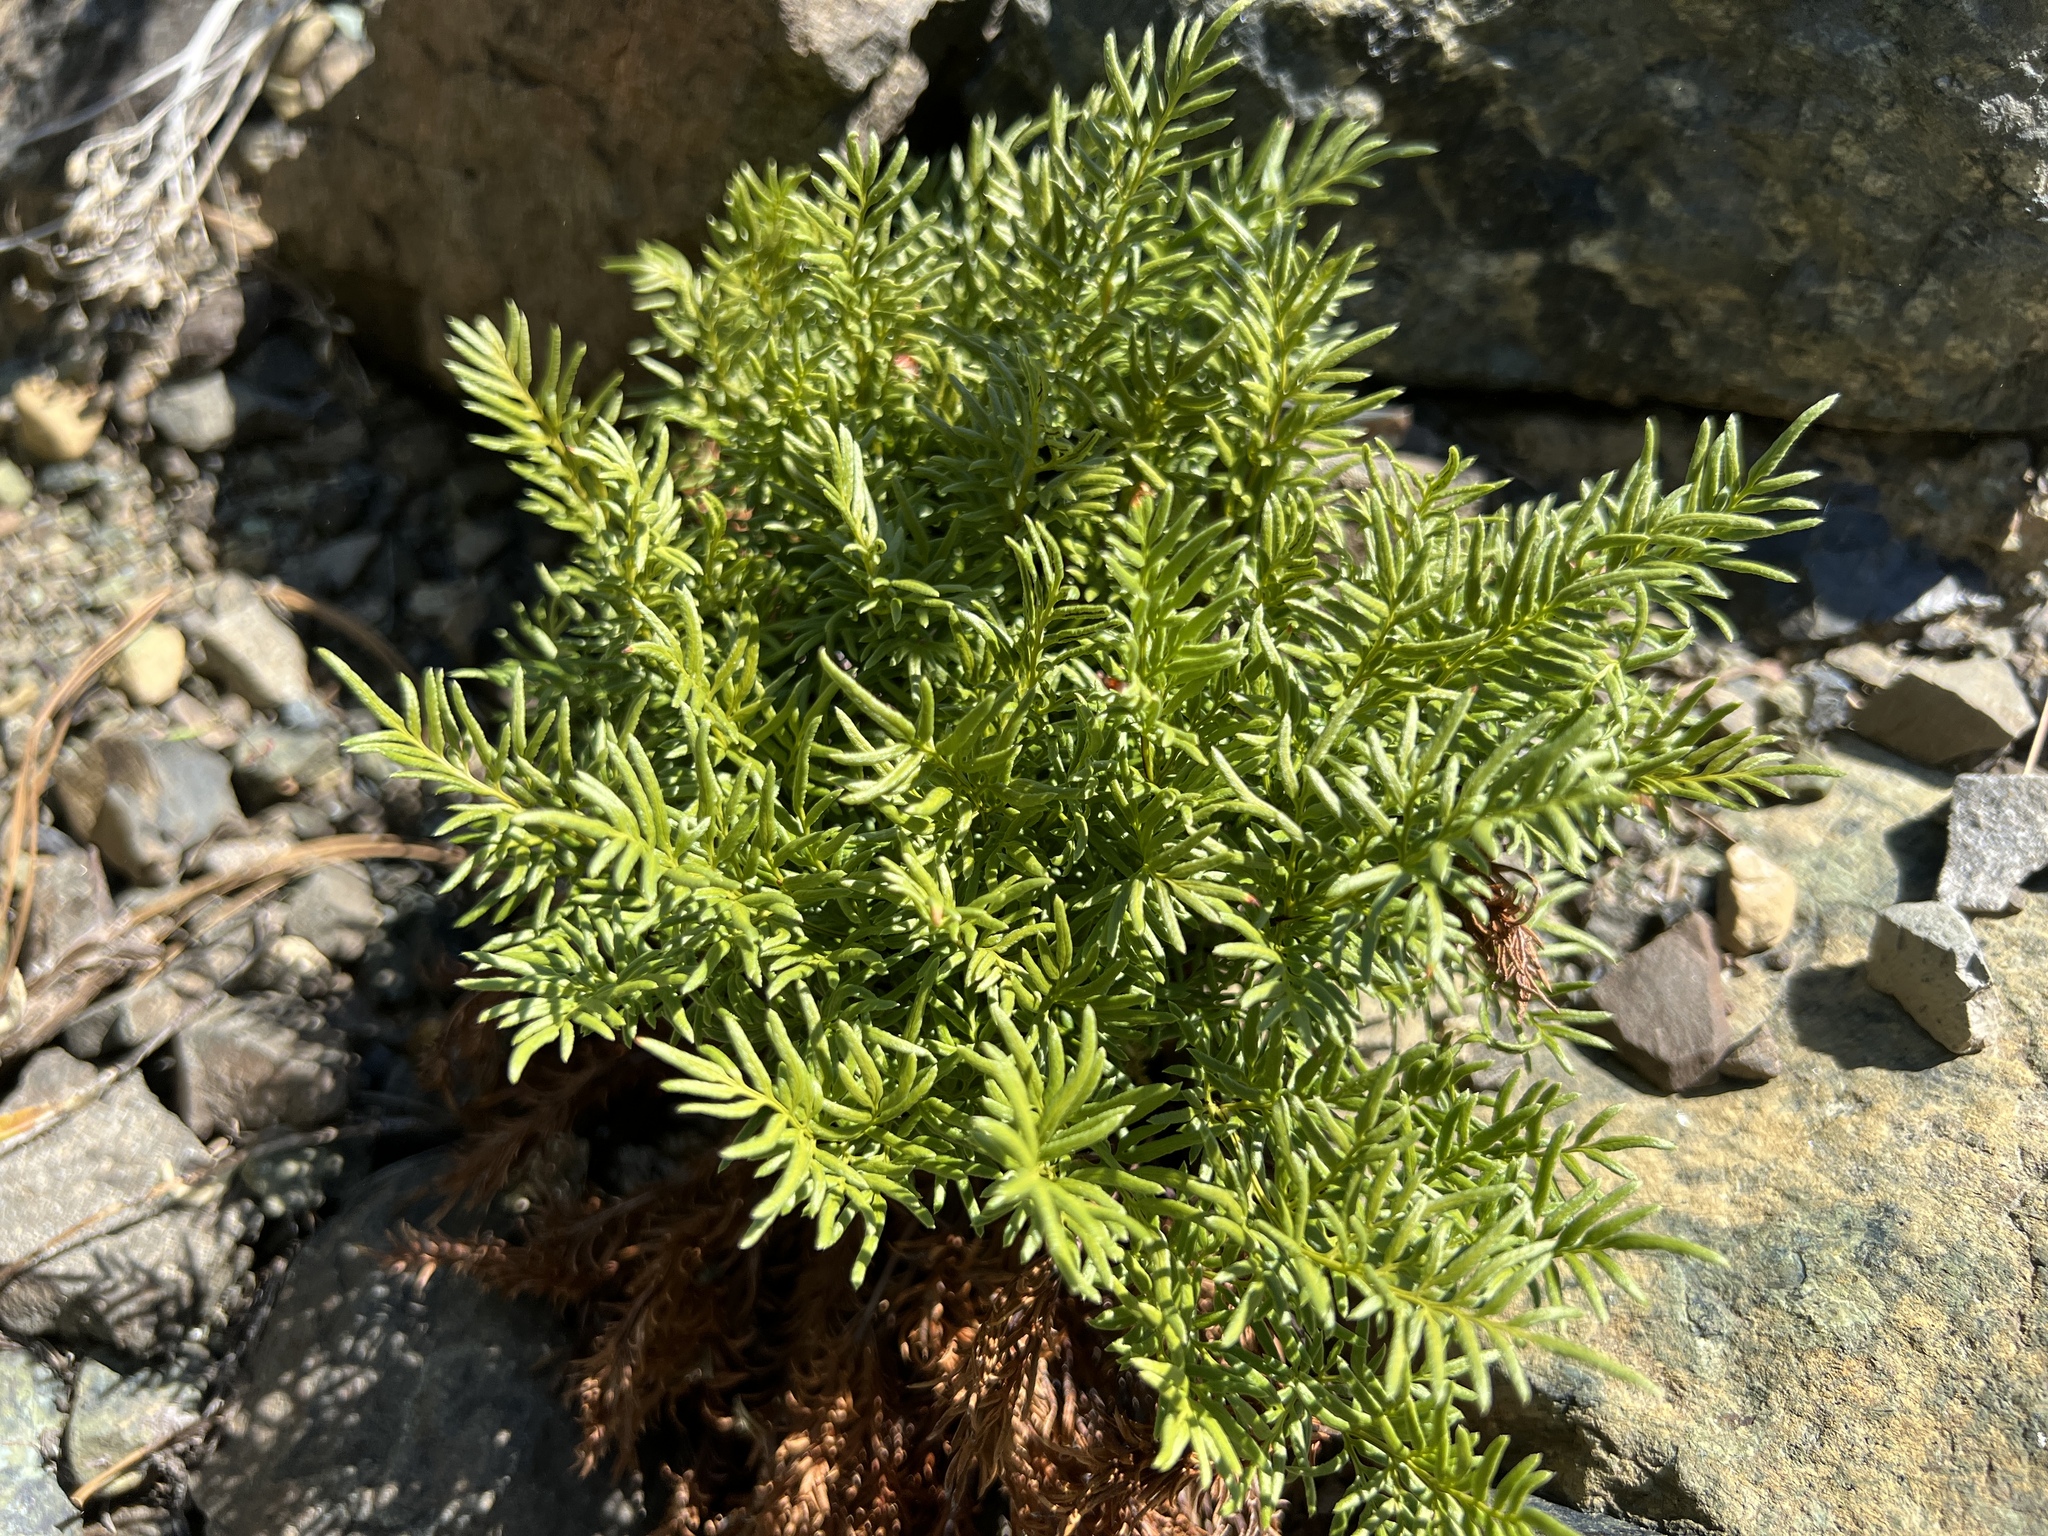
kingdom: Plantae
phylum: Tracheophyta
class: Polypodiopsida
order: Polypodiales
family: Pteridaceae
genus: Aspidotis
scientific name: Aspidotis densa
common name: Indian's dream
